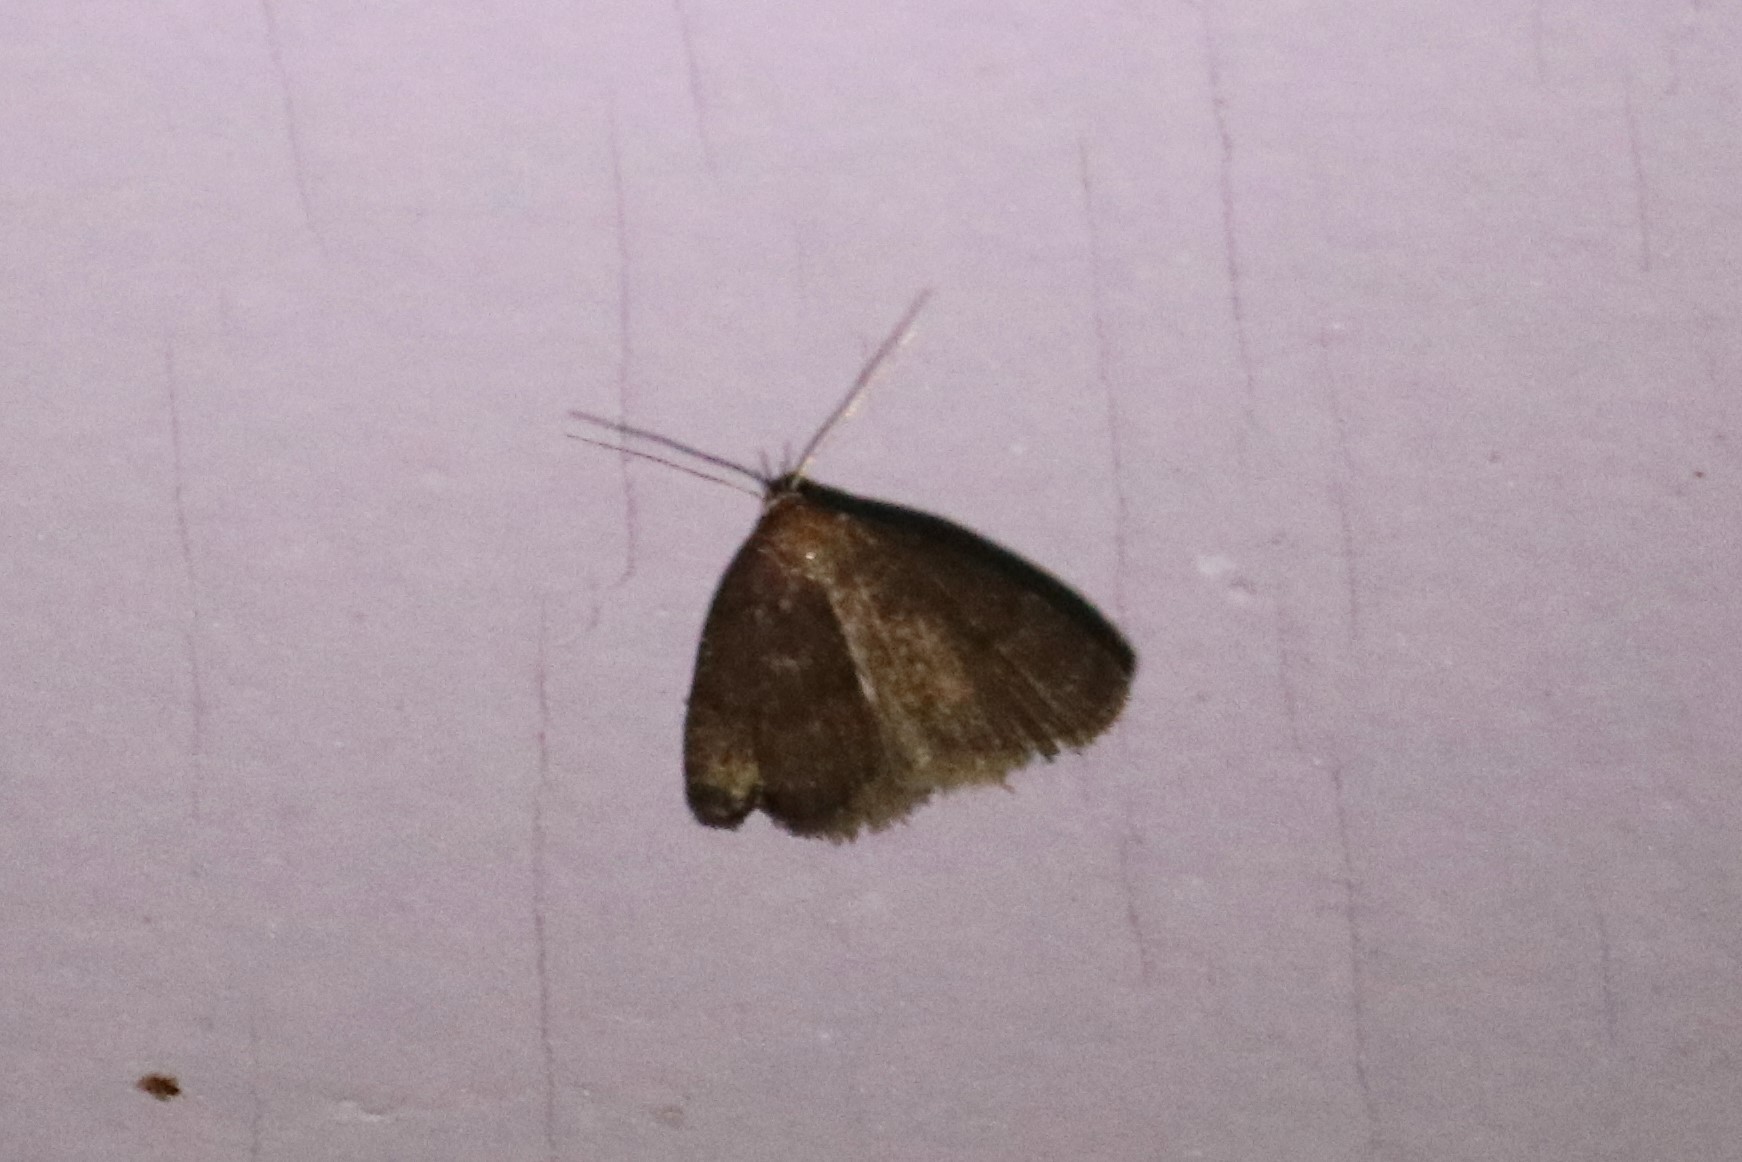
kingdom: Animalia
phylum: Arthropoda
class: Insecta
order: Lepidoptera
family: Erebidae
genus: Idia
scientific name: Idia rotundalis
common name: Rotund idia moth
